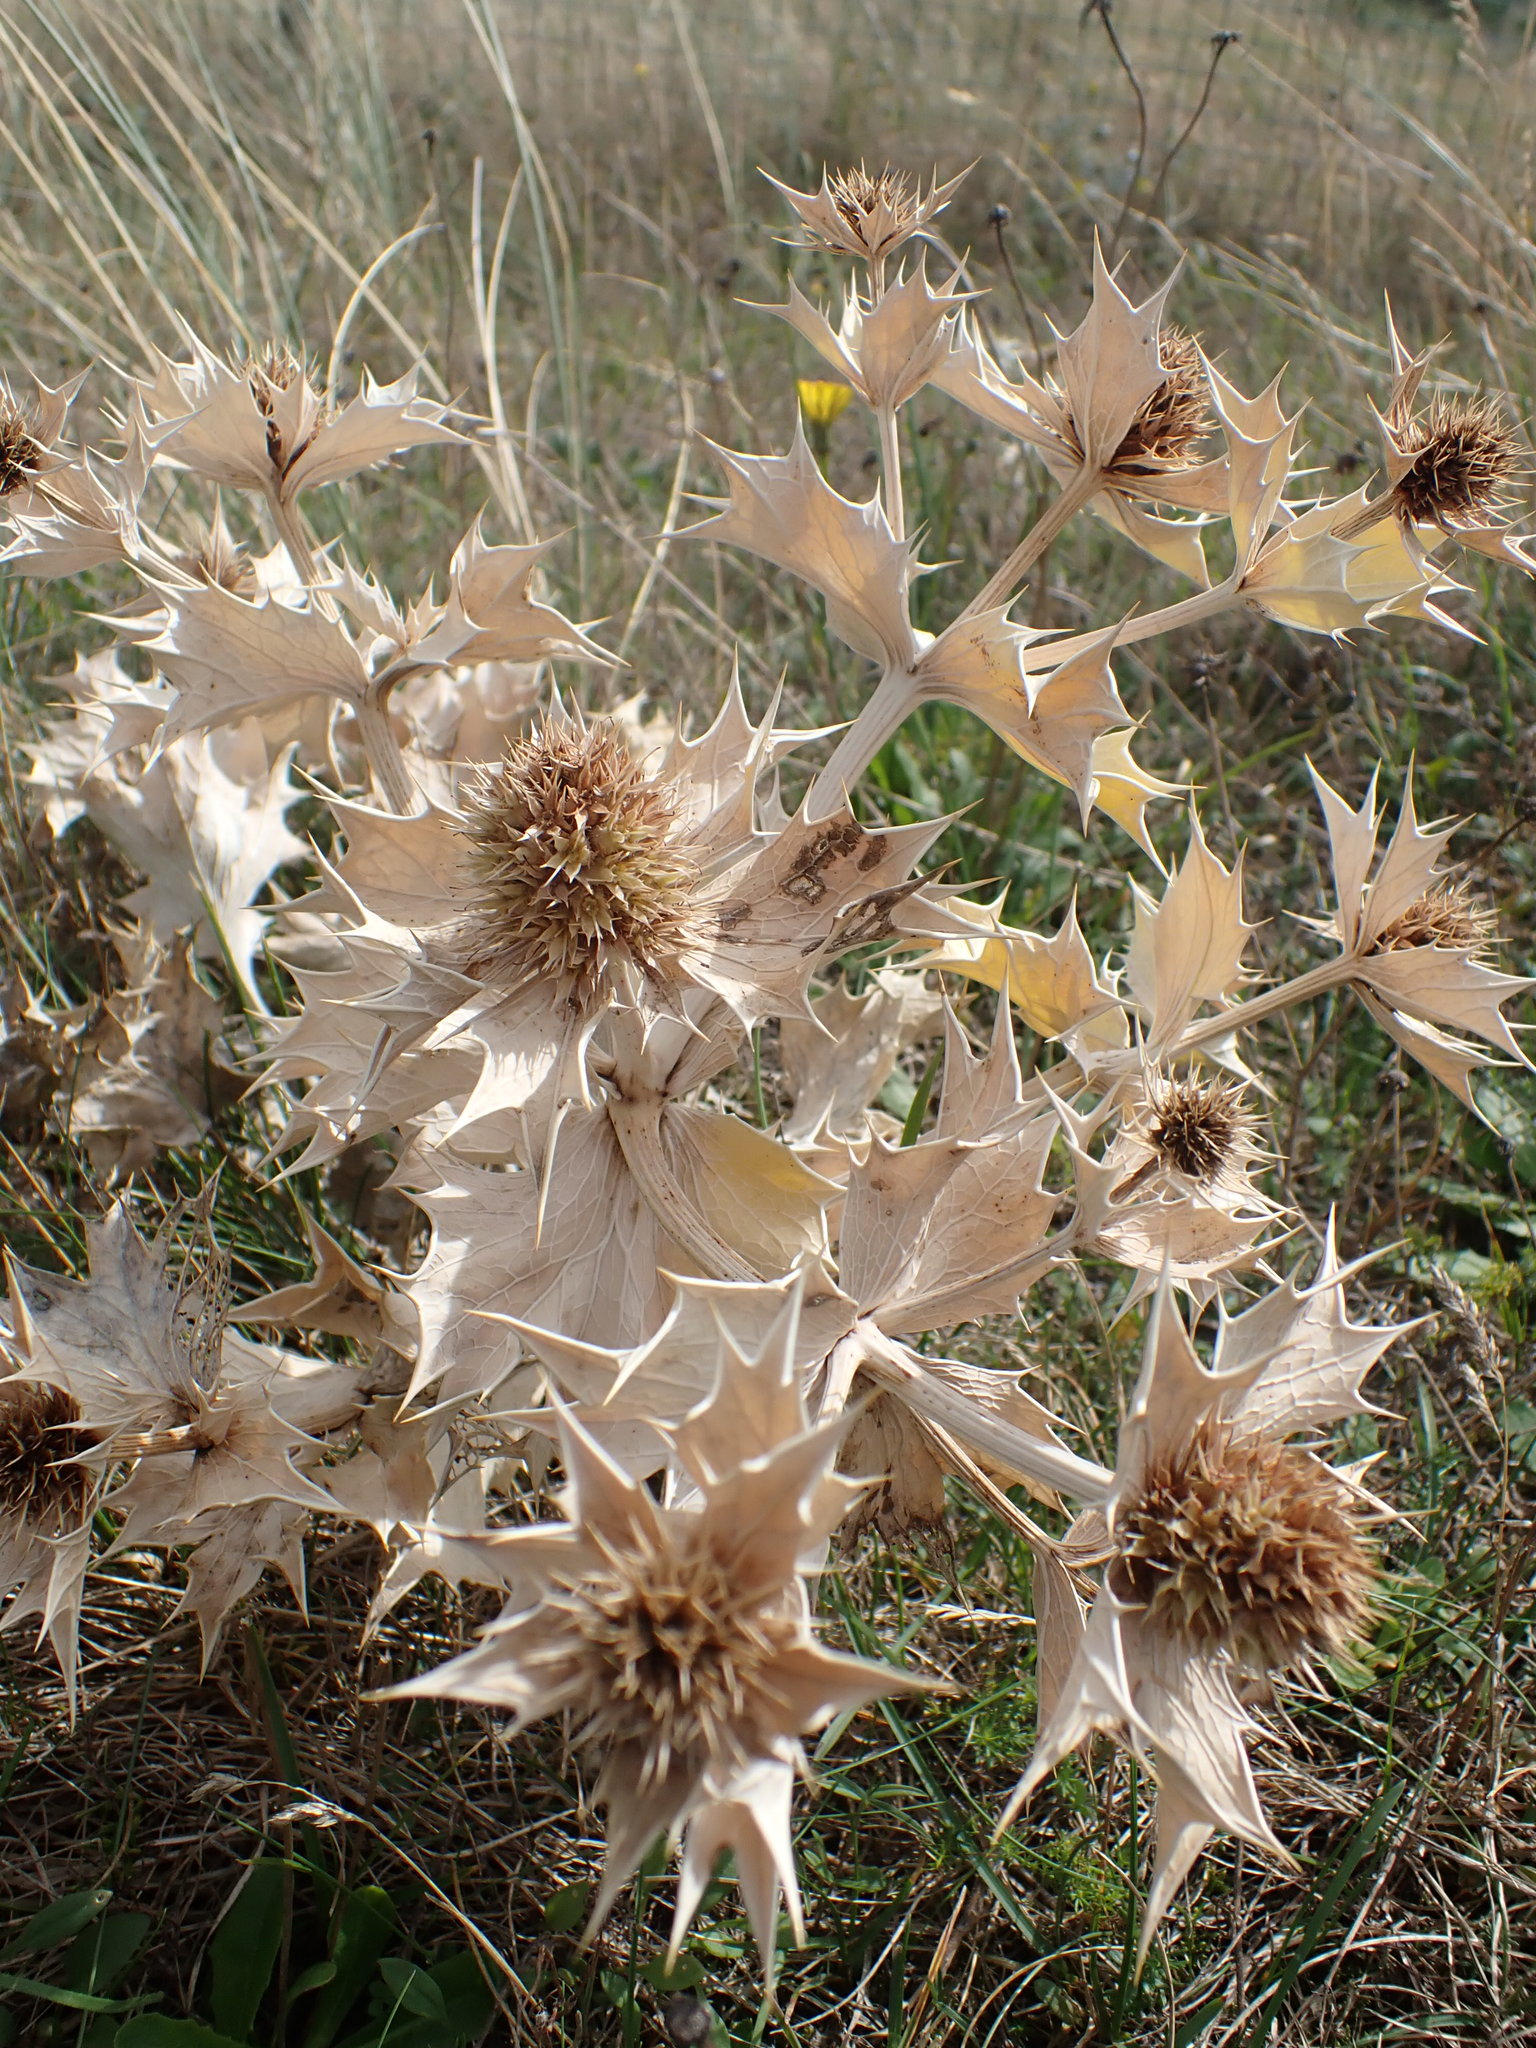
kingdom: Plantae
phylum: Tracheophyta
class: Magnoliopsida
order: Apiales
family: Apiaceae
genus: Eryngium
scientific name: Eryngium maritimum
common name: Sea-holly
